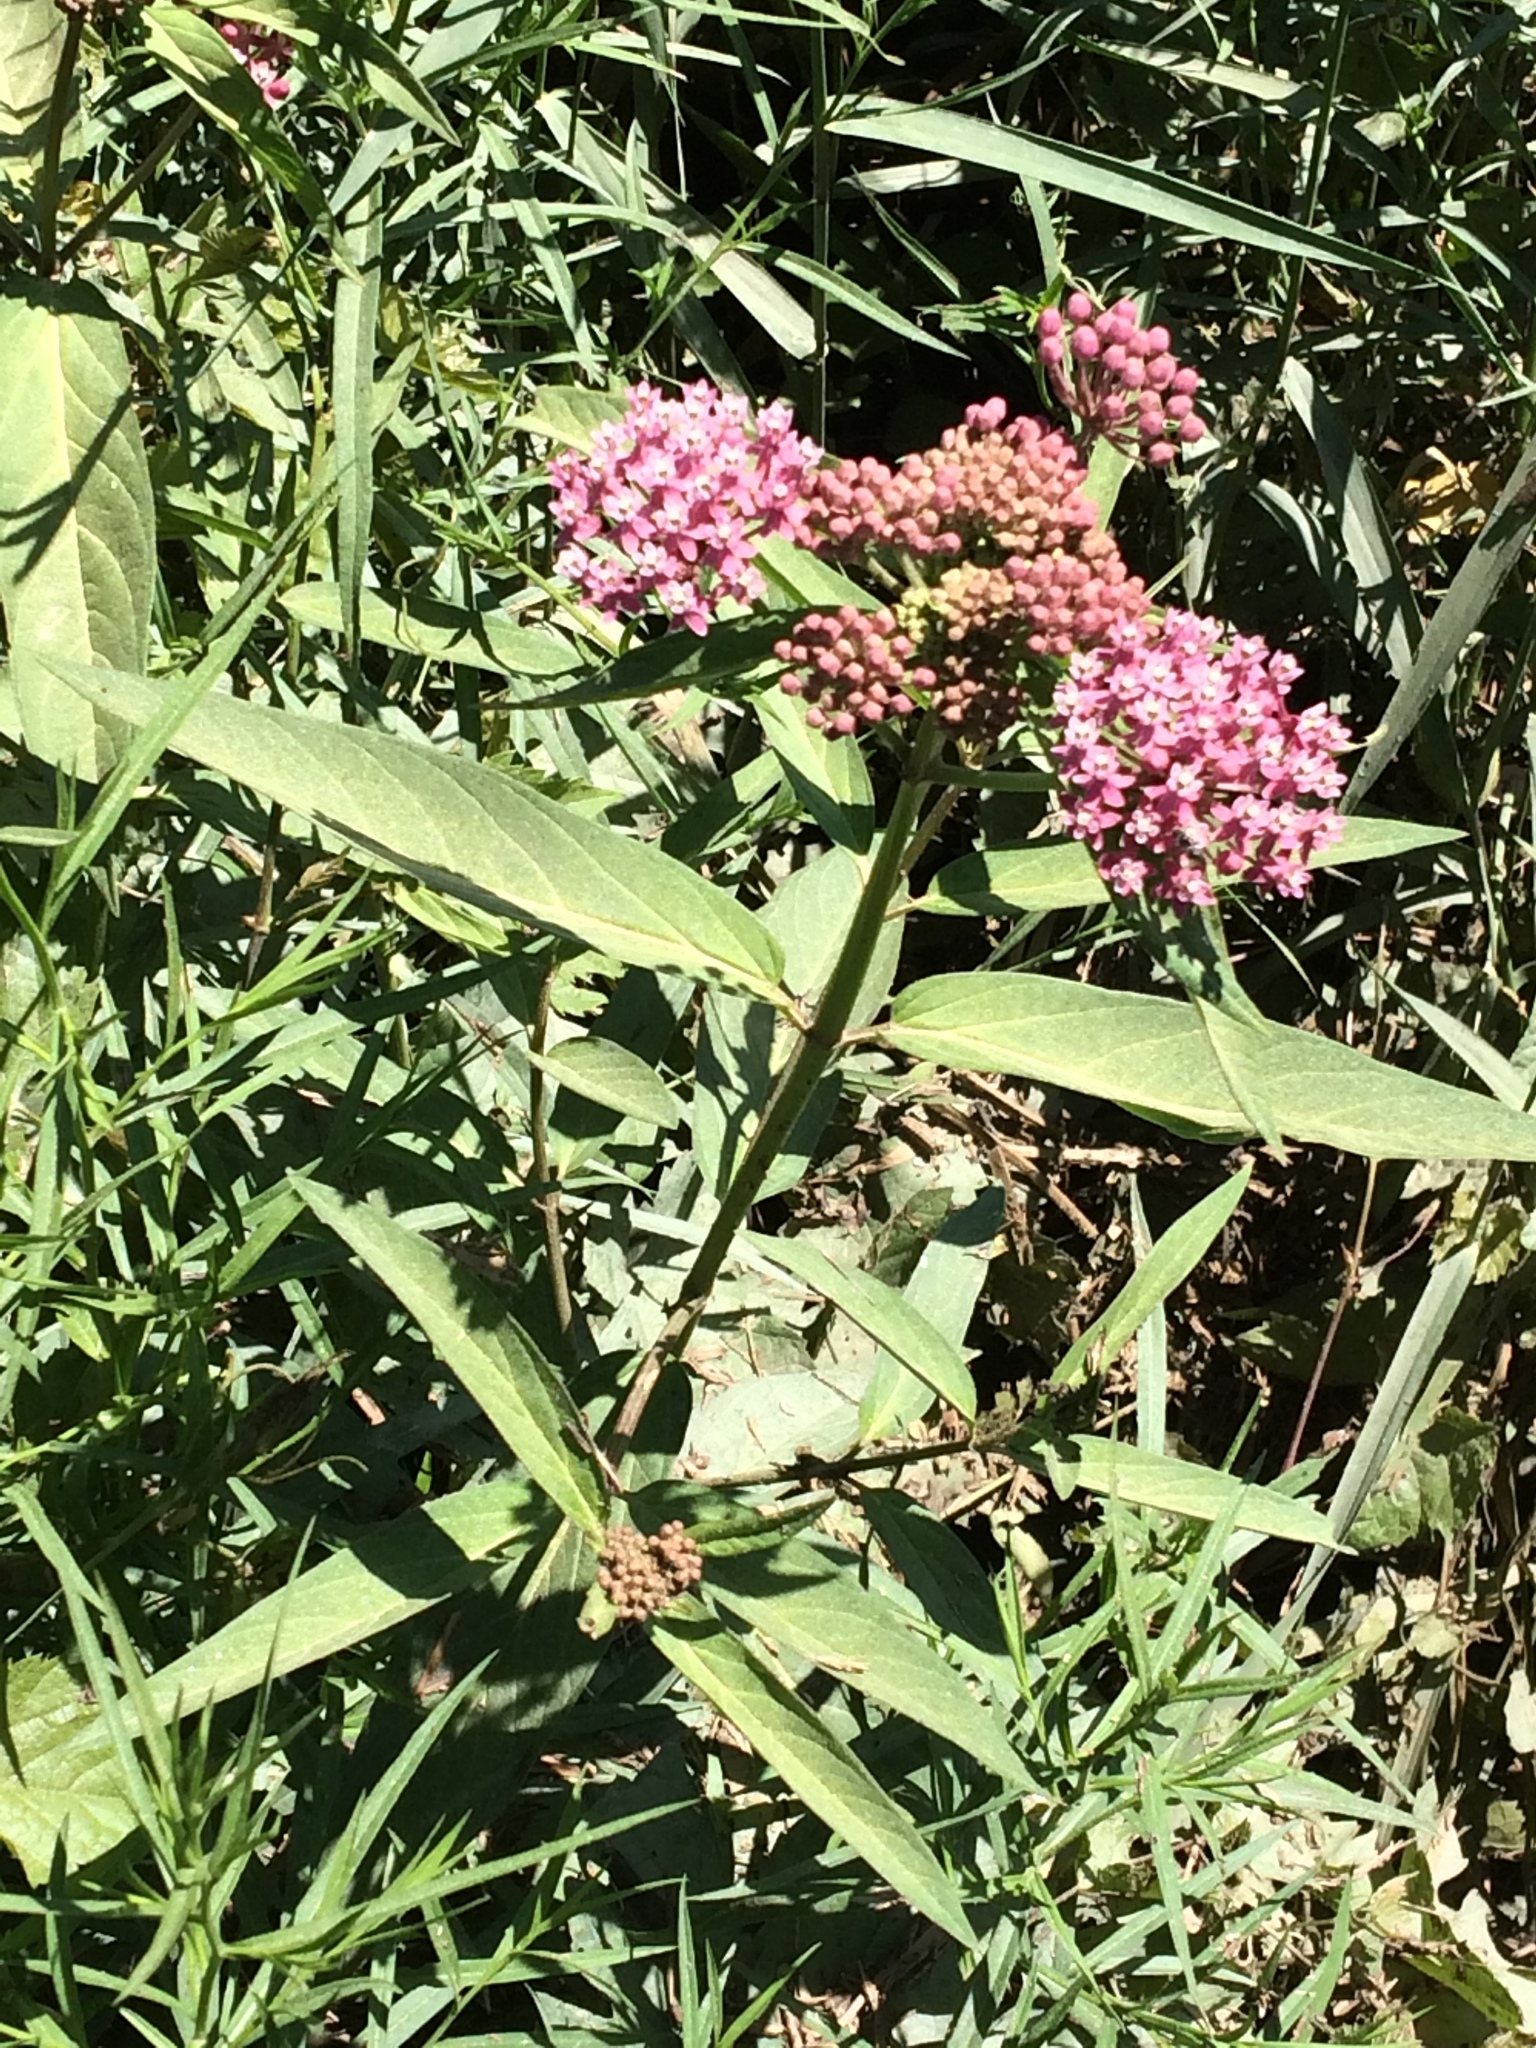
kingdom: Plantae
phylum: Tracheophyta
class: Magnoliopsida
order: Gentianales
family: Apocynaceae
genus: Asclepias
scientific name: Asclepias incarnata
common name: Swamp milkweed
